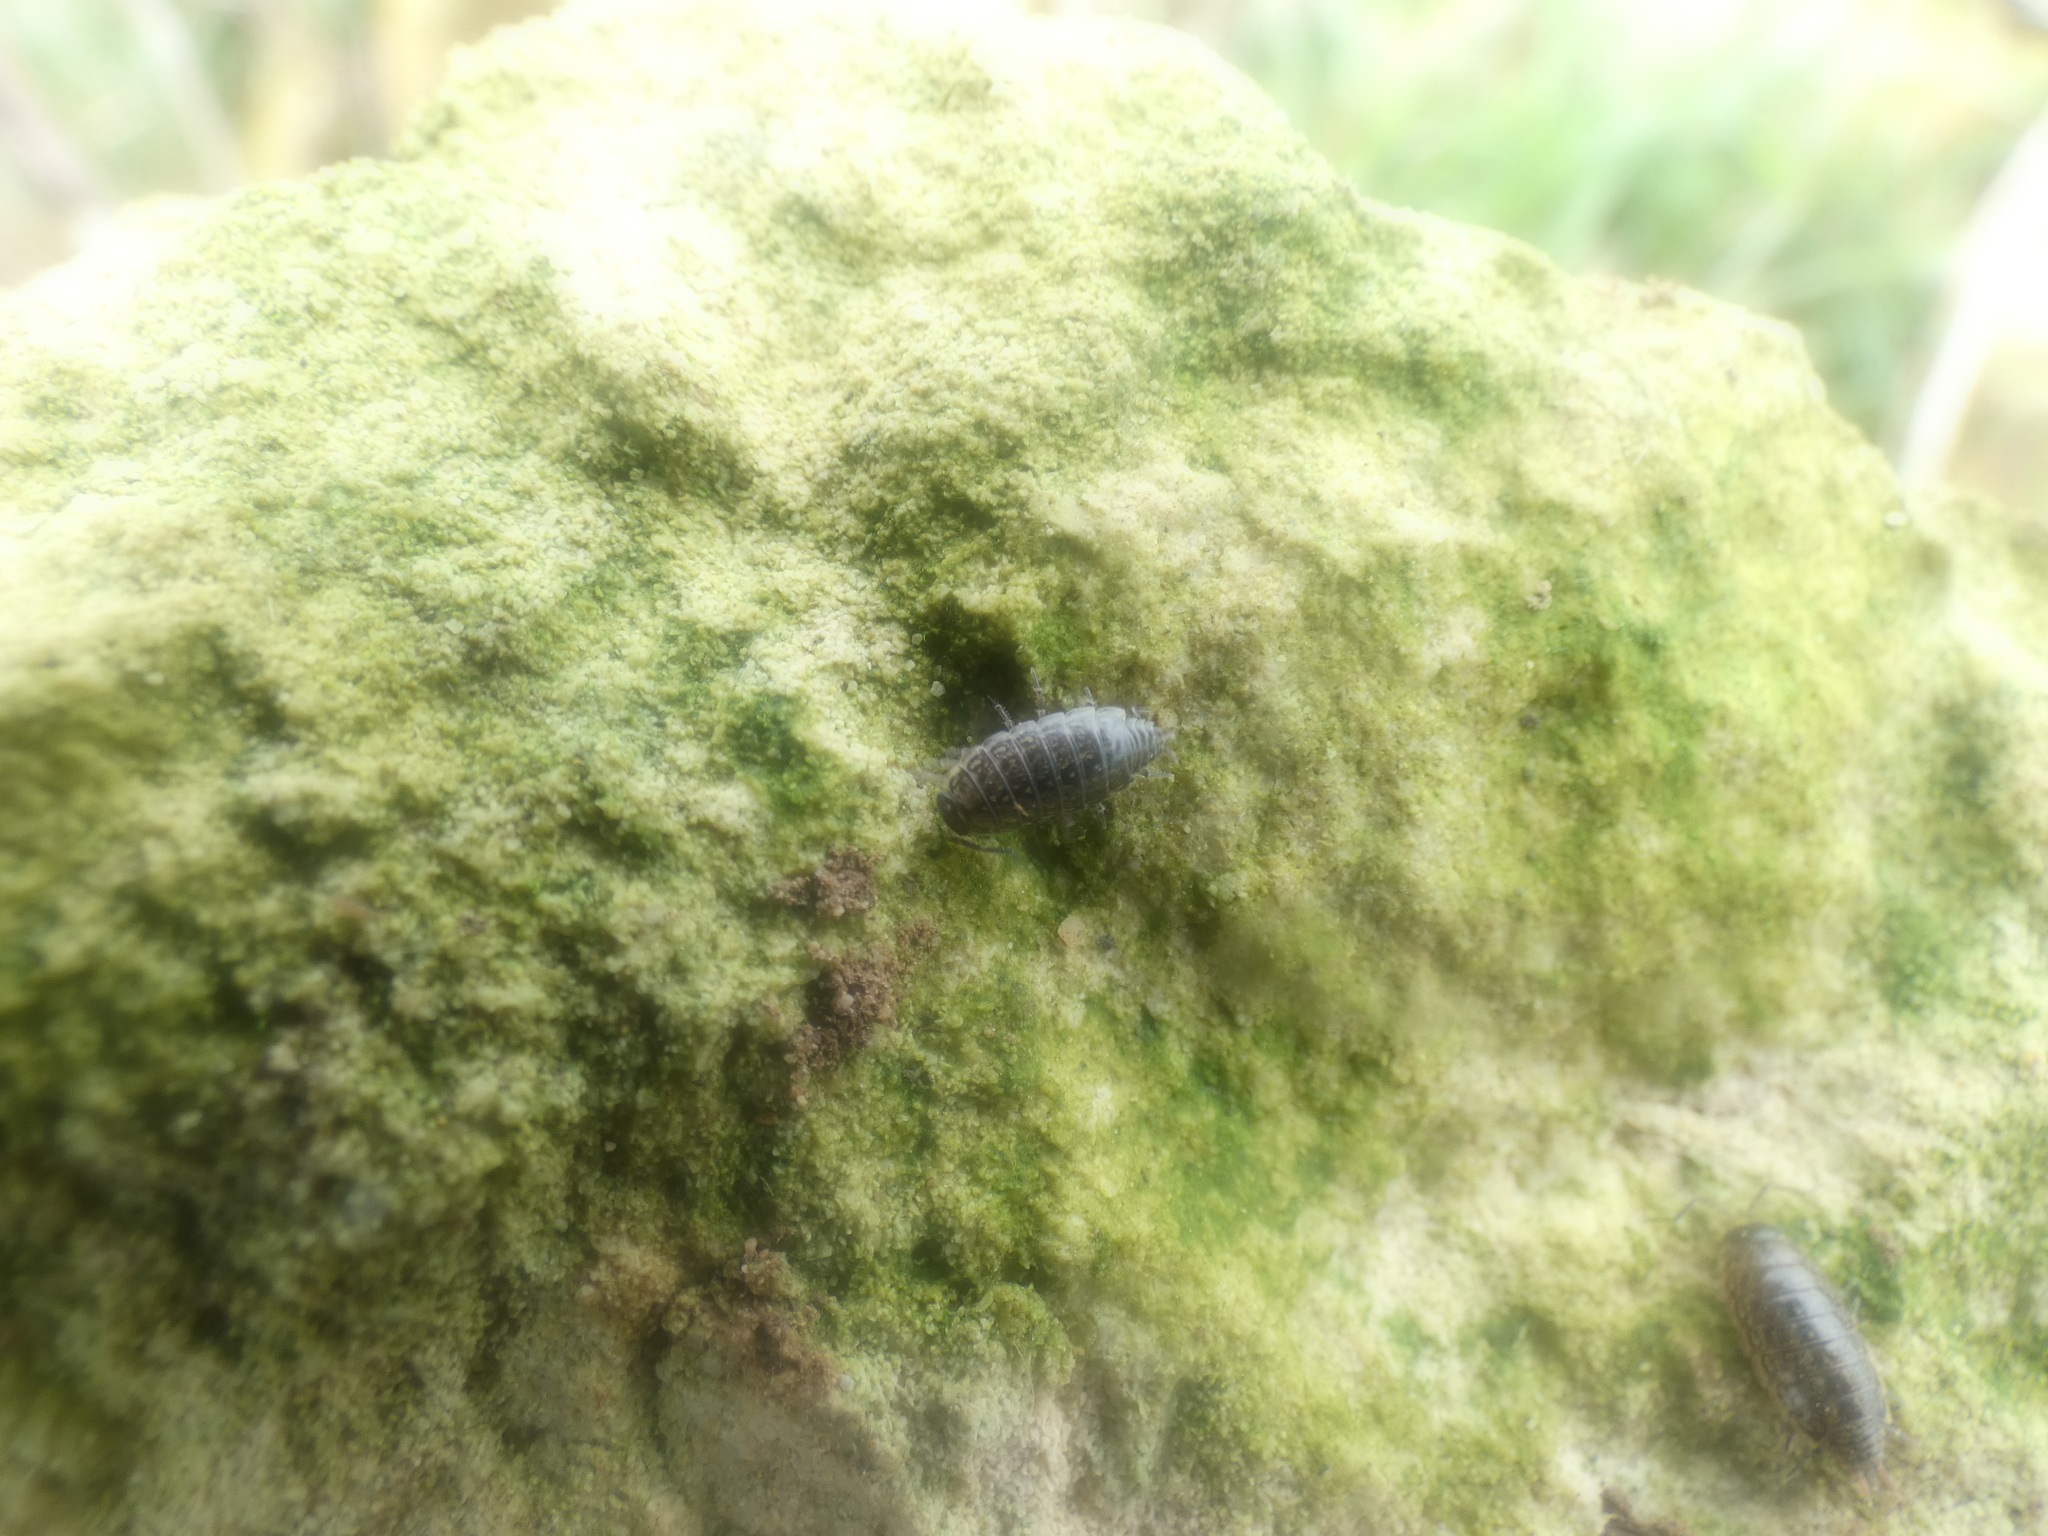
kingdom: Animalia
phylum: Arthropoda
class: Malacostraca
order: Isopoda
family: Philosciidae
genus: Philoscia
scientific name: Philoscia muscorum
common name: Common striped woodlouse
